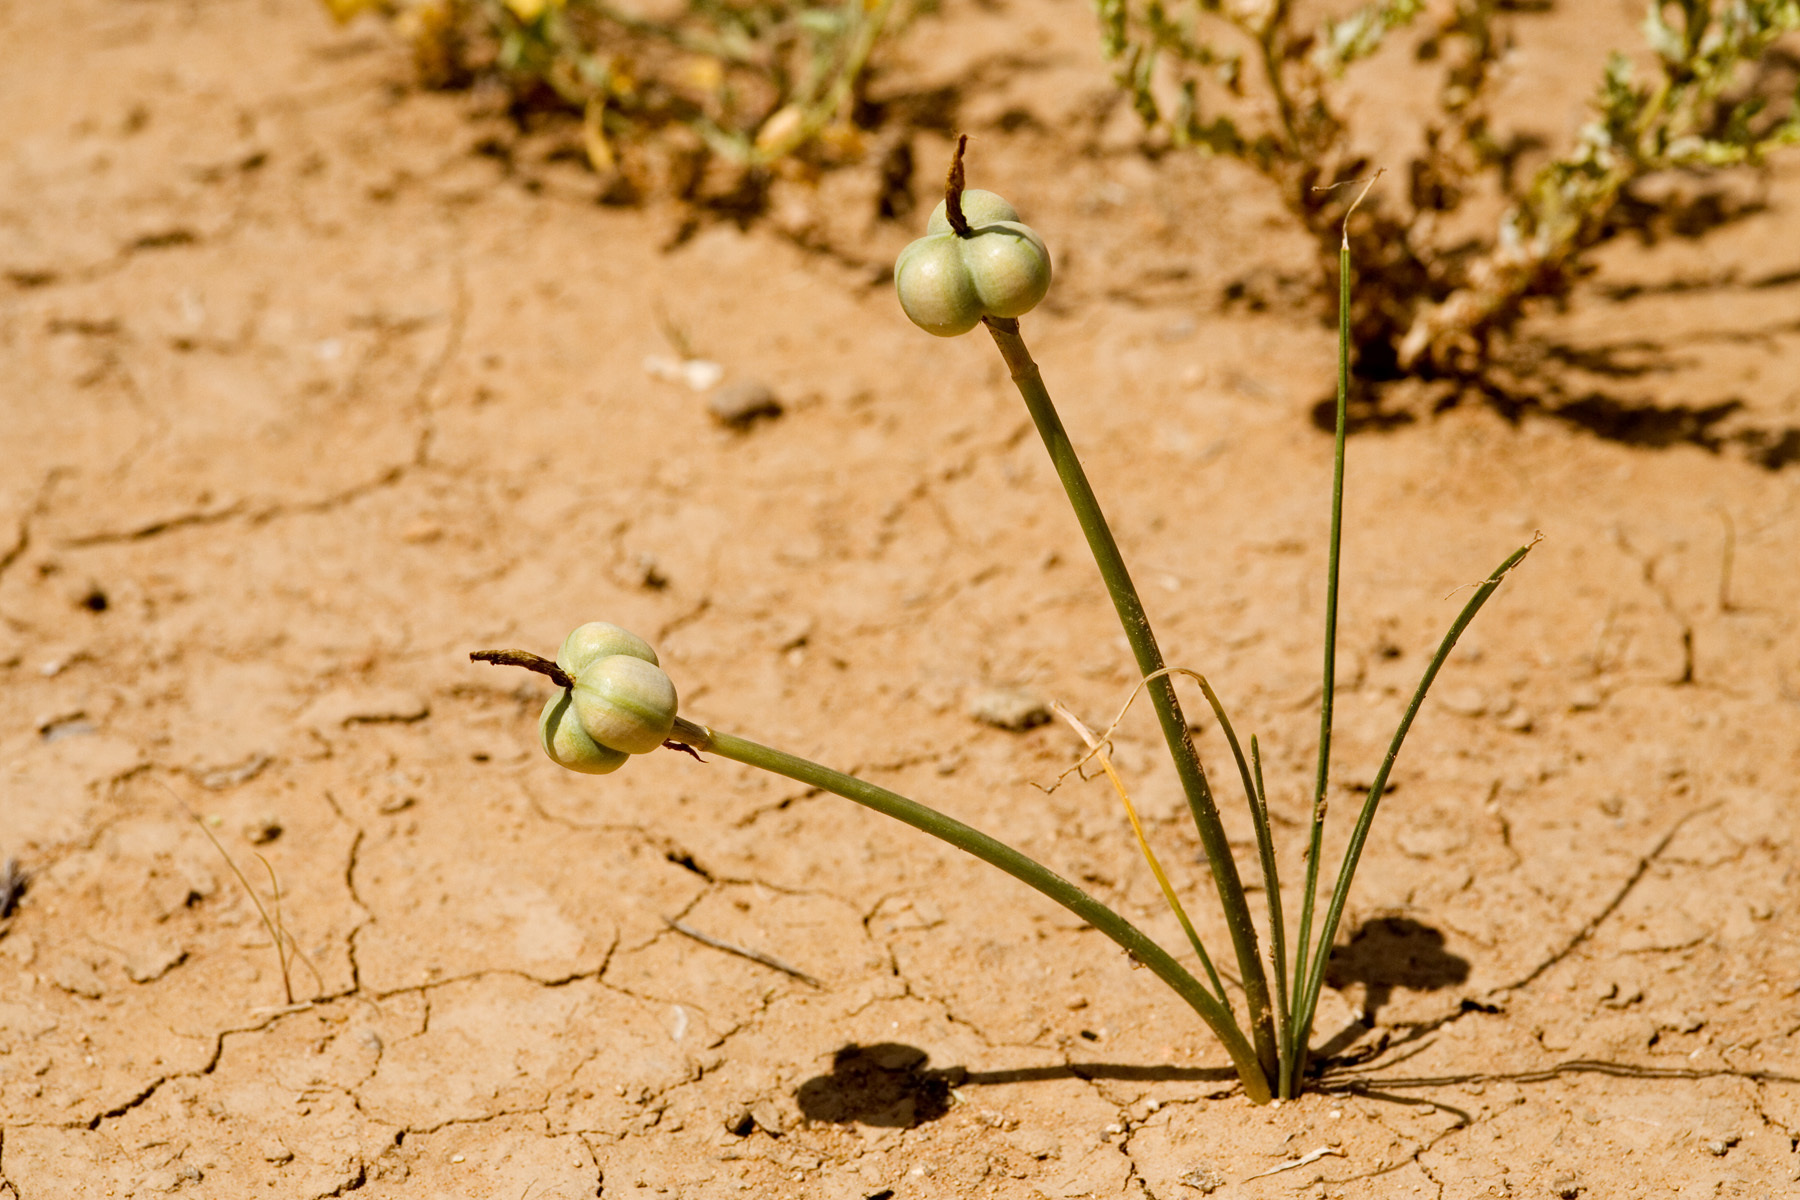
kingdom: Plantae
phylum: Tracheophyta
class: Liliopsida
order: Asparagales
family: Amaryllidaceae
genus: Zephyranthes
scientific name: Zephyranthes longifolia
